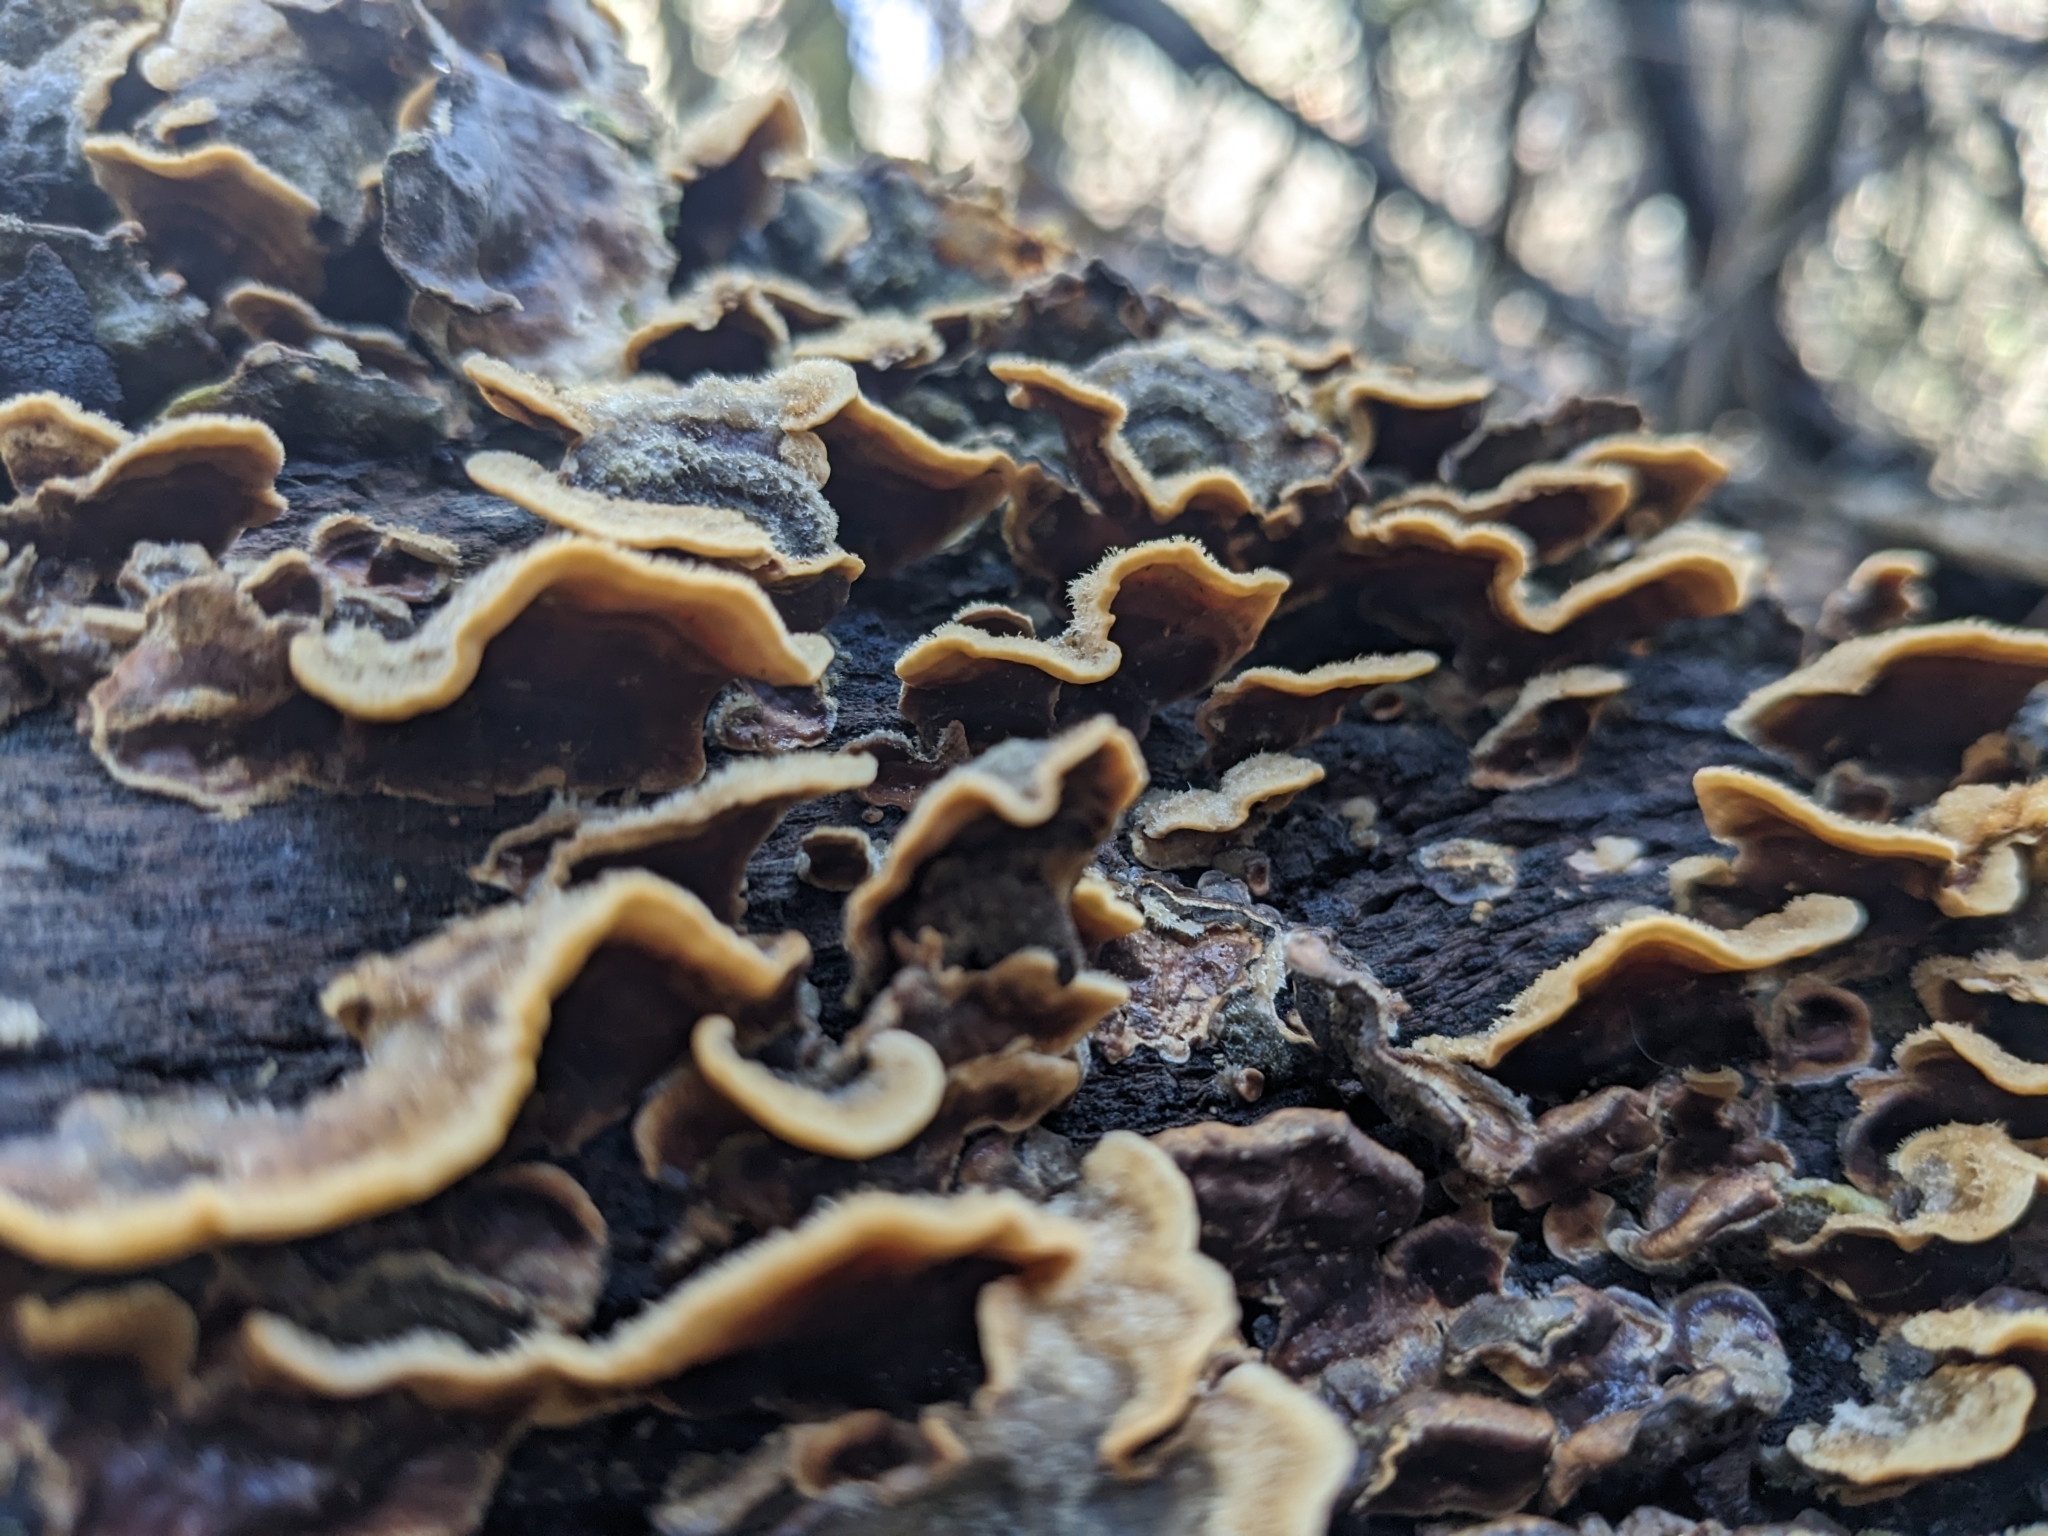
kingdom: Fungi
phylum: Basidiomycota
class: Agaricomycetes
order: Russulales
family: Stereaceae
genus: Stereum
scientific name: Stereum hirsutum
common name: Hairy curtain crust
